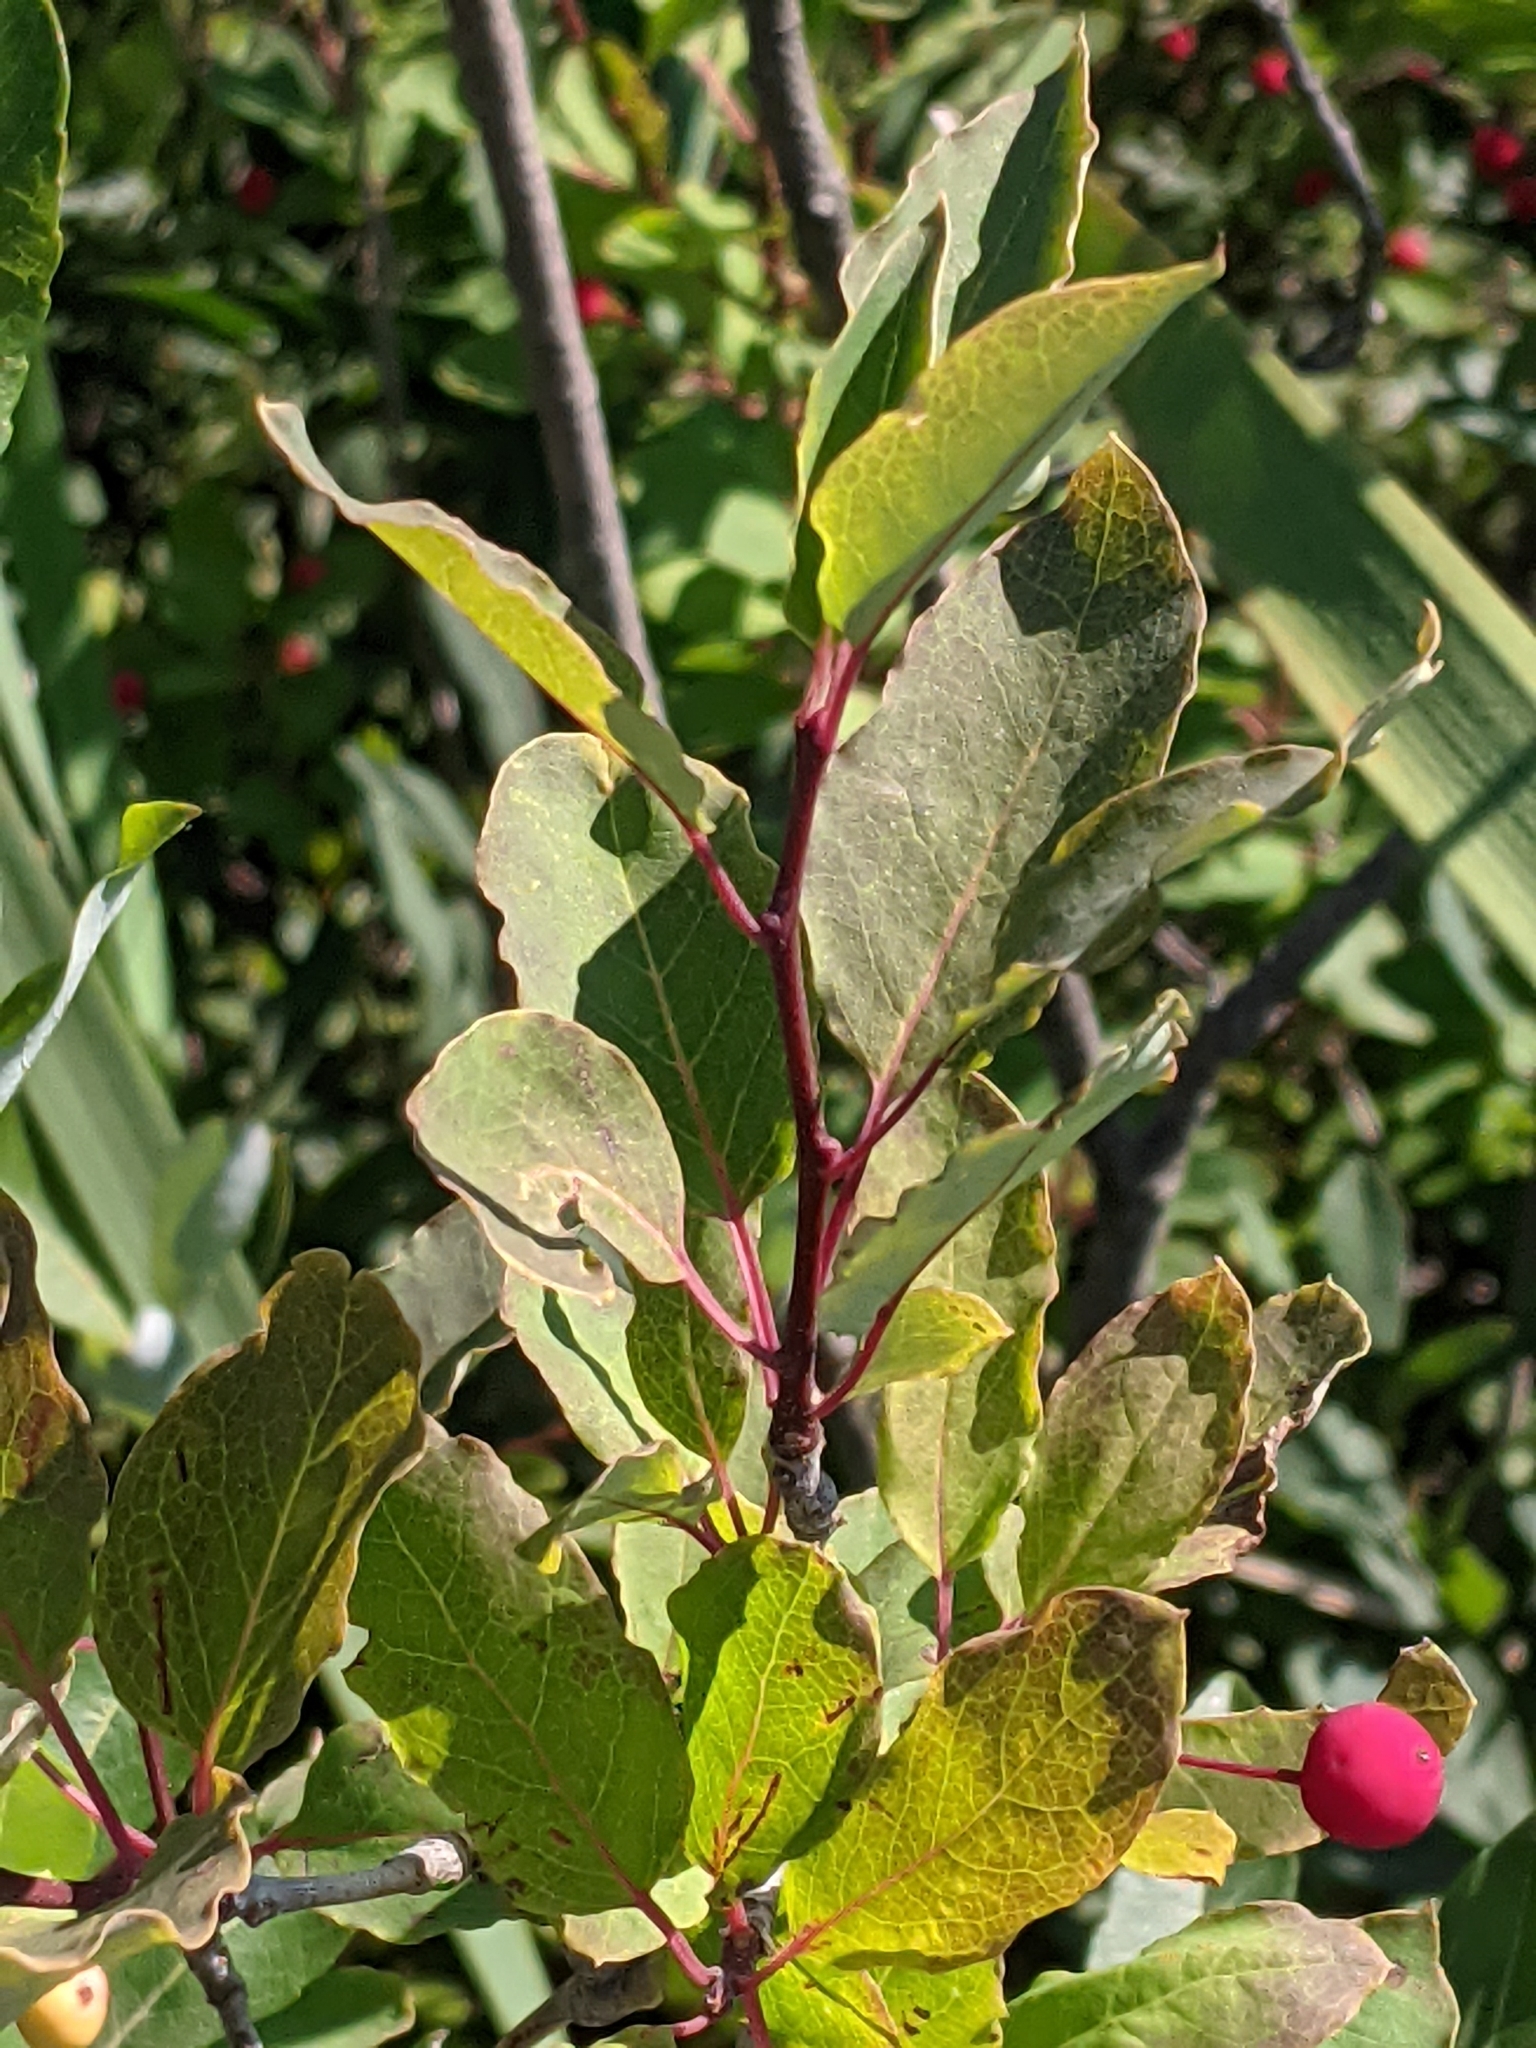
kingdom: Plantae
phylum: Tracheophyta
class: Magnoliopsida
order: Aquifoliales
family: Aquifoliaceae
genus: Ilex
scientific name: Ilex mucronata
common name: Catberry
